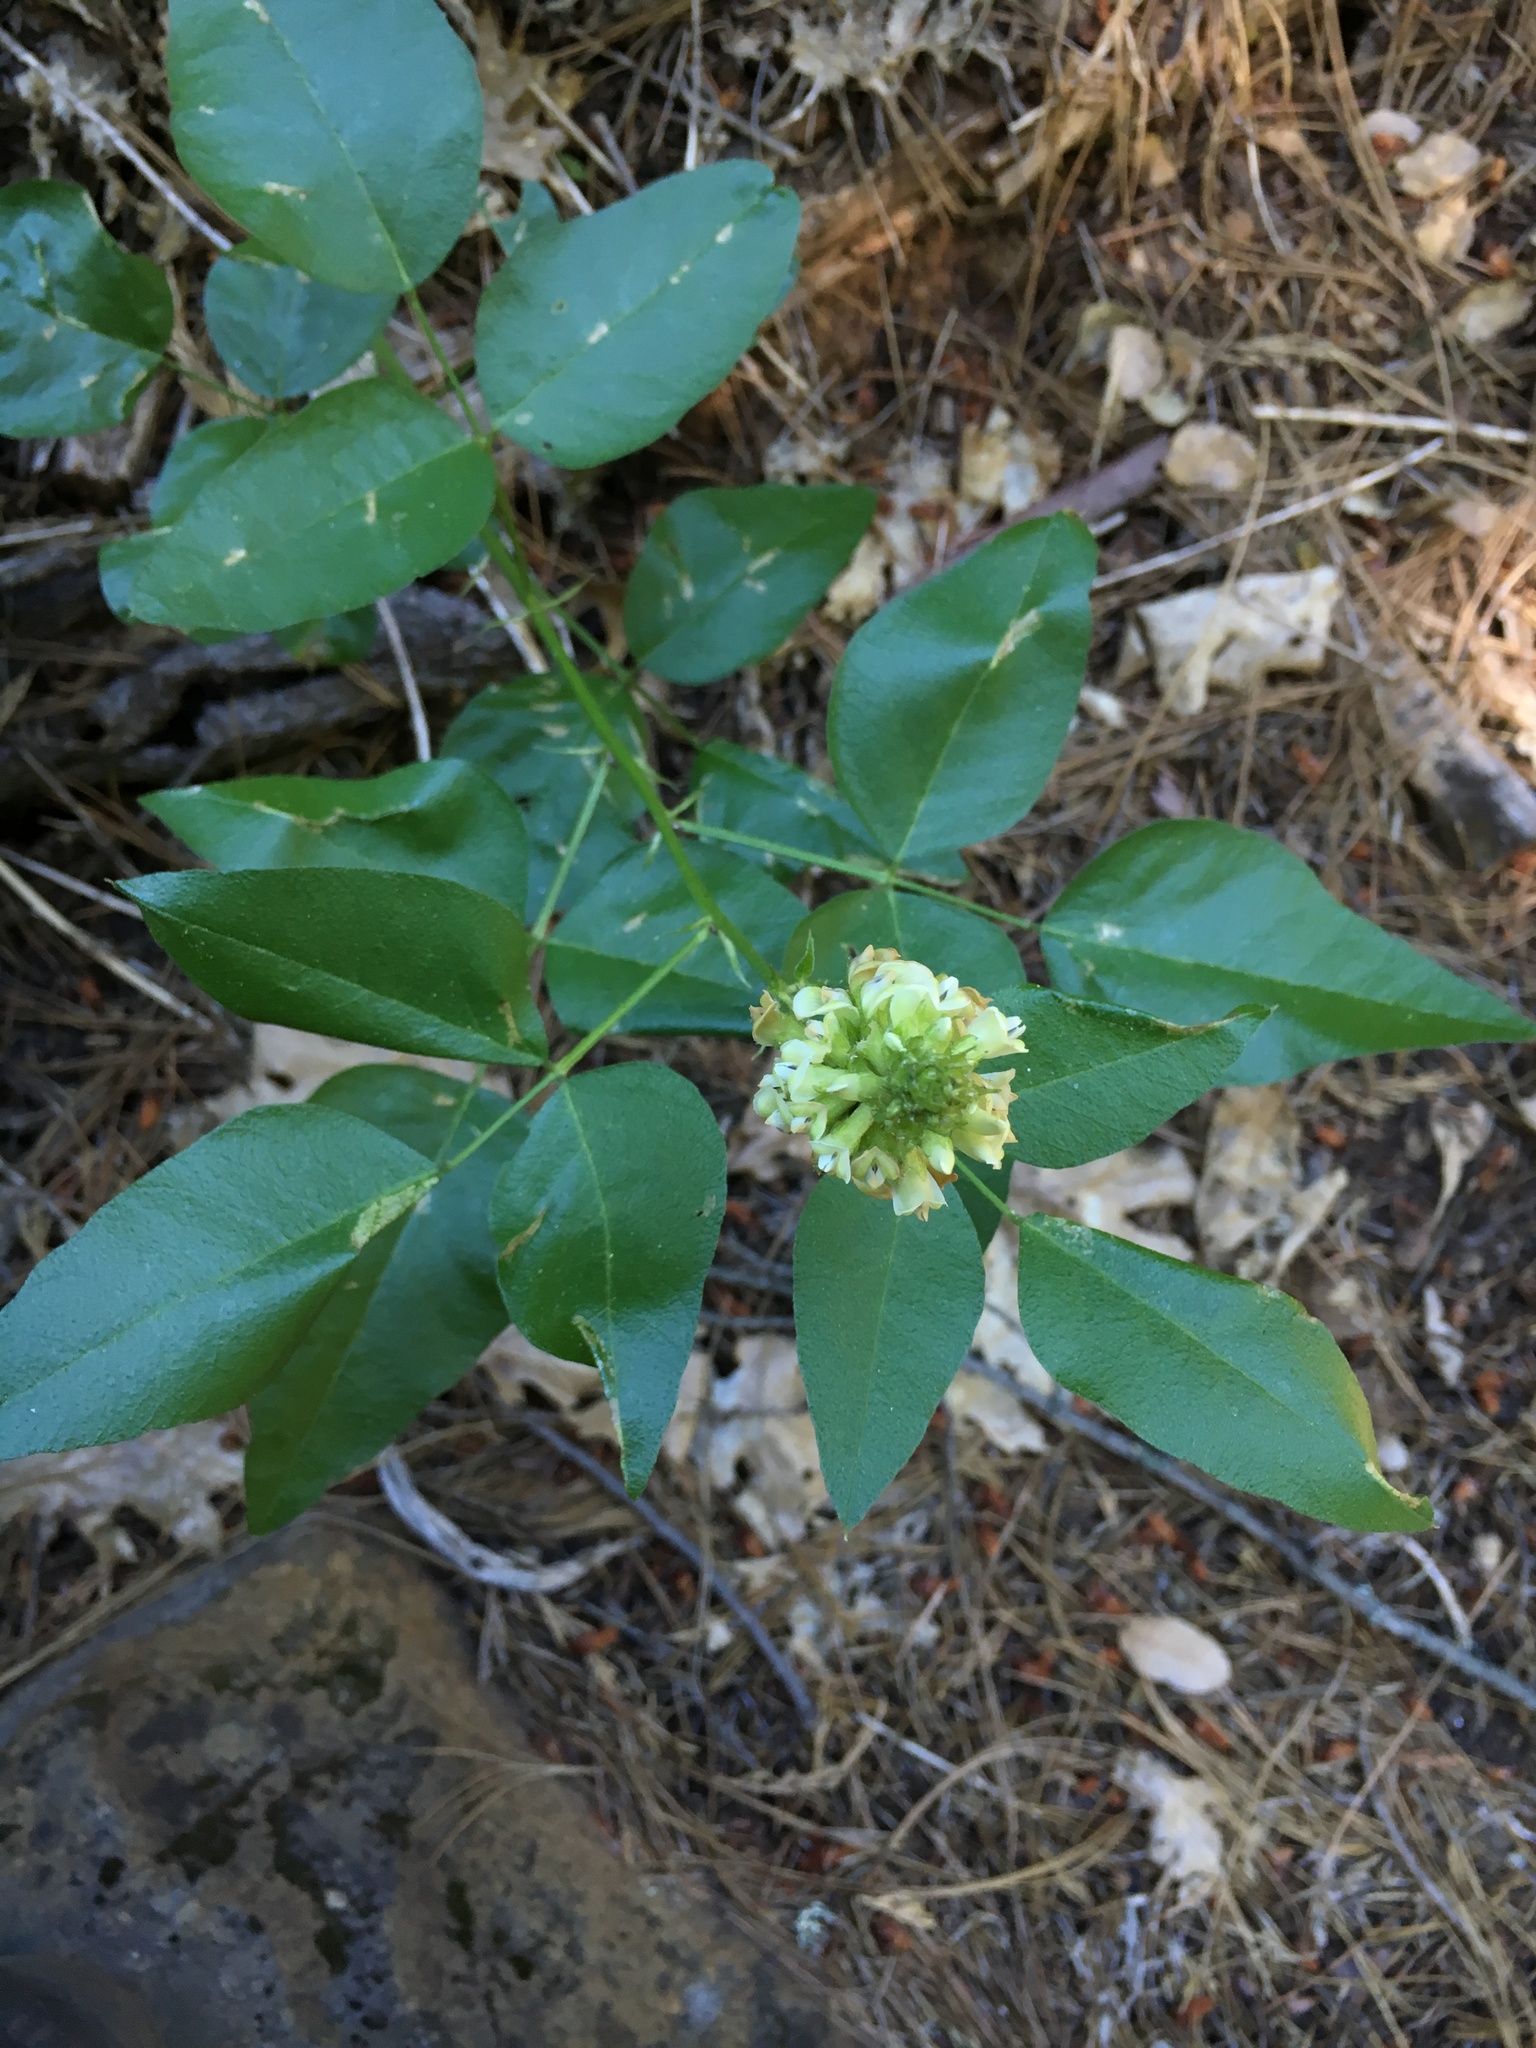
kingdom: Plantae
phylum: Tracheophyta
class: Magnoliopsida
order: Fabales
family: Fabaceae
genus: Rupertia
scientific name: Rupertia hallii
